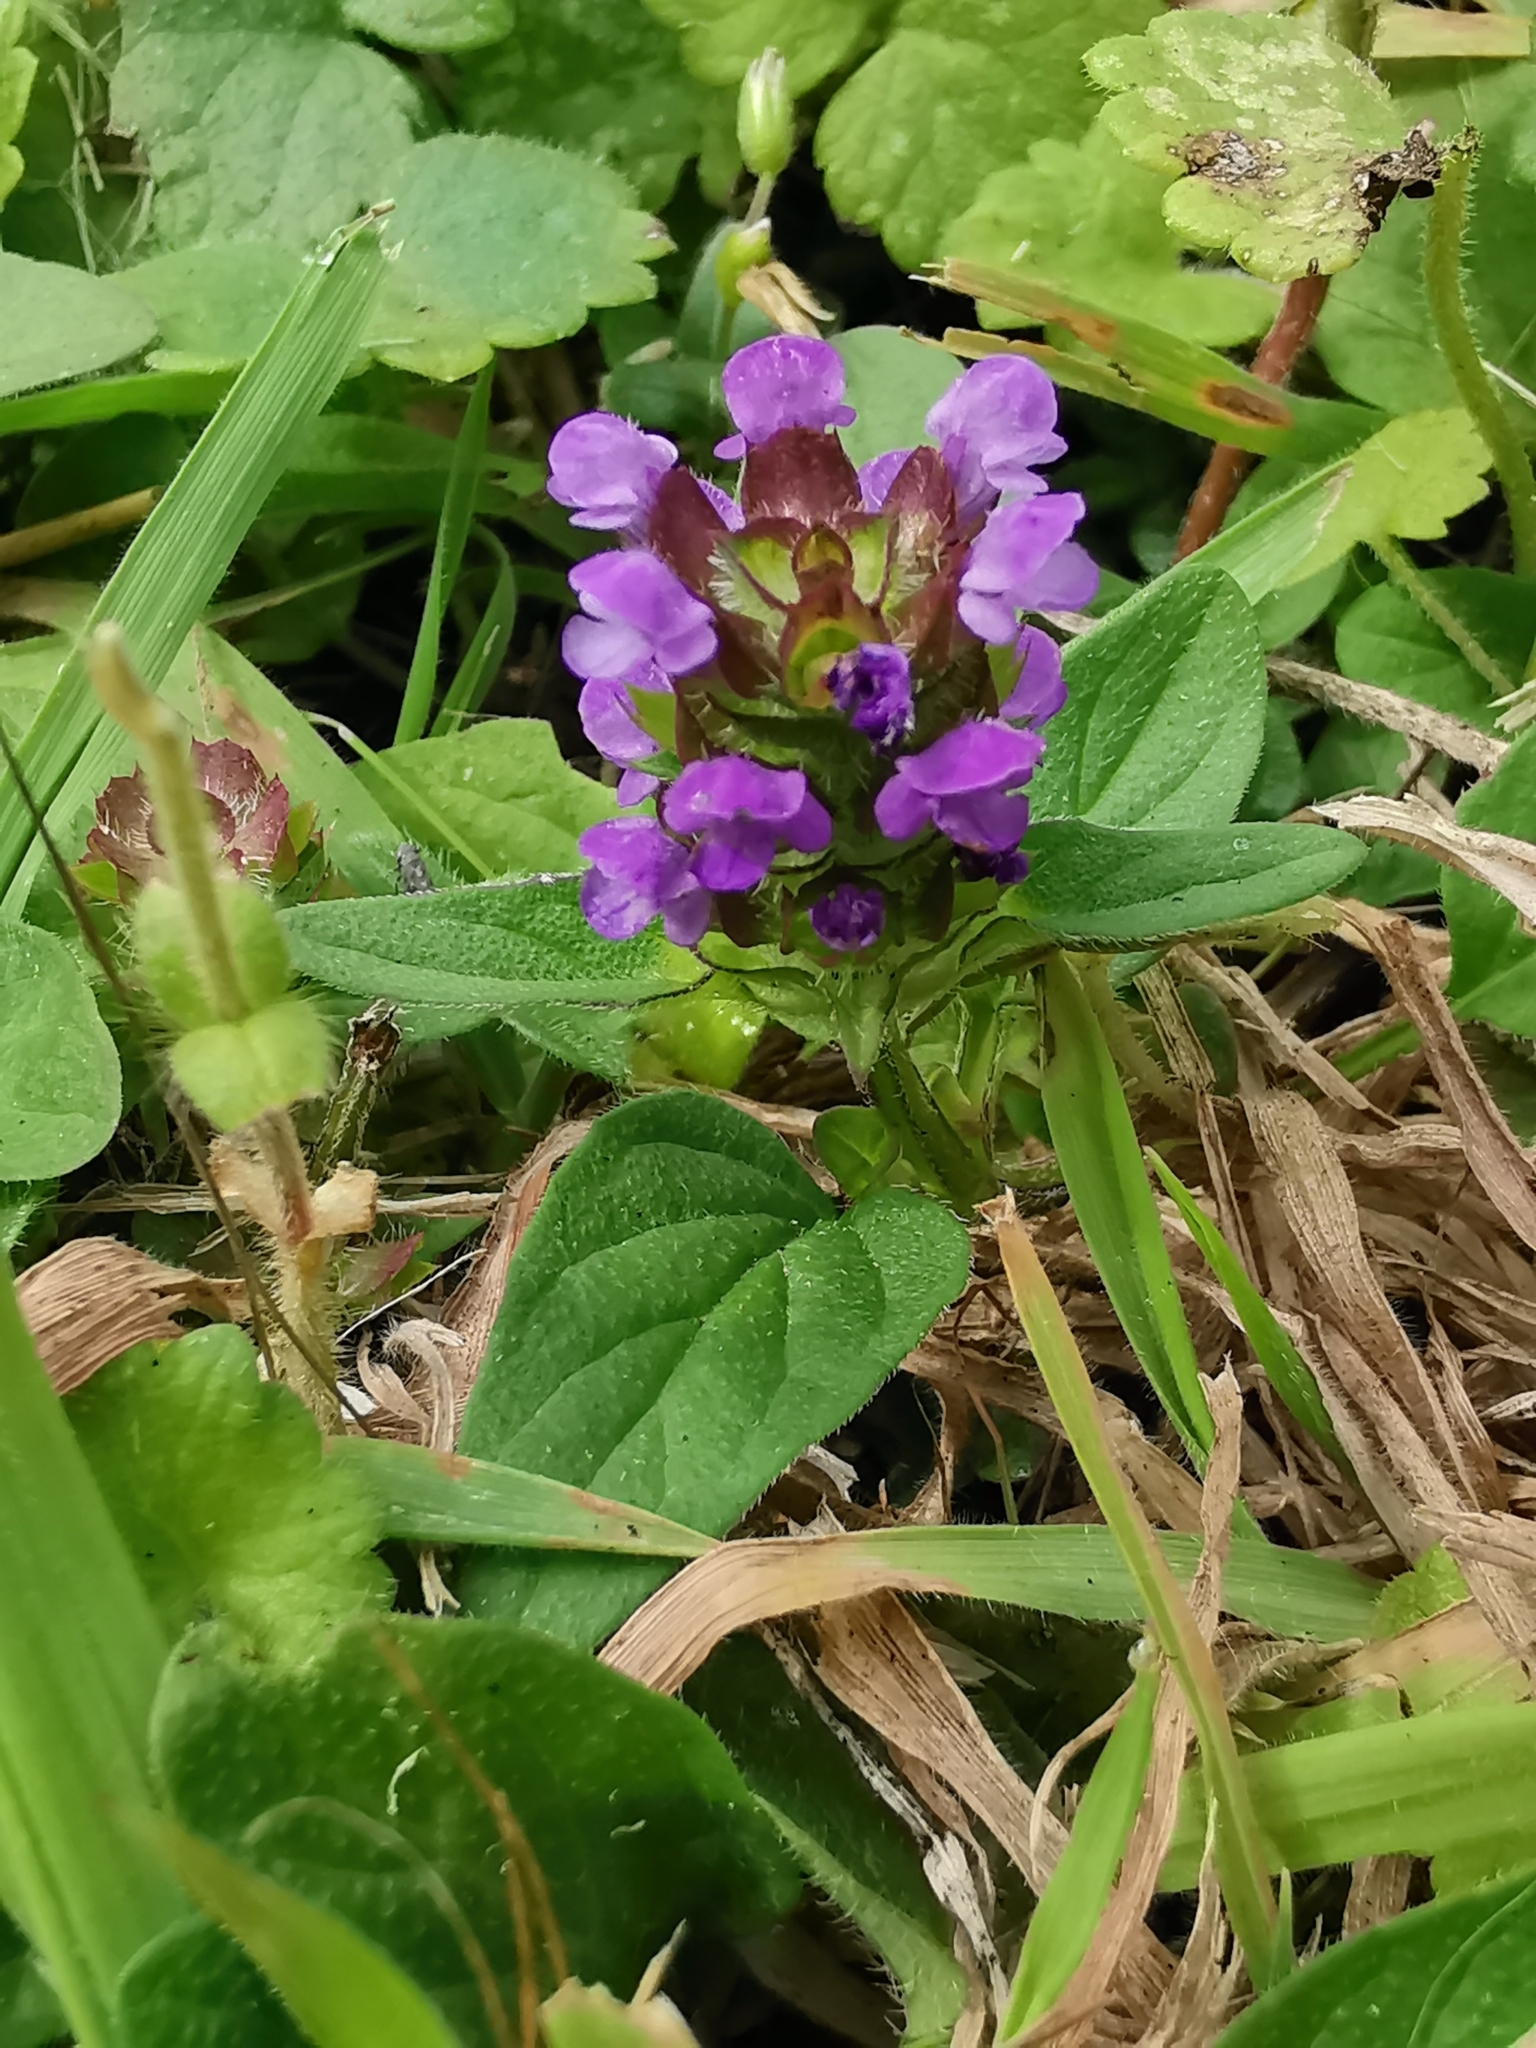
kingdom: Plantae
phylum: Tracheophyta
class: Magnoliopsida
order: Lamiales
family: Lamiaceae
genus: Prunella
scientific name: Prunella vulgaris
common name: Heal-all
